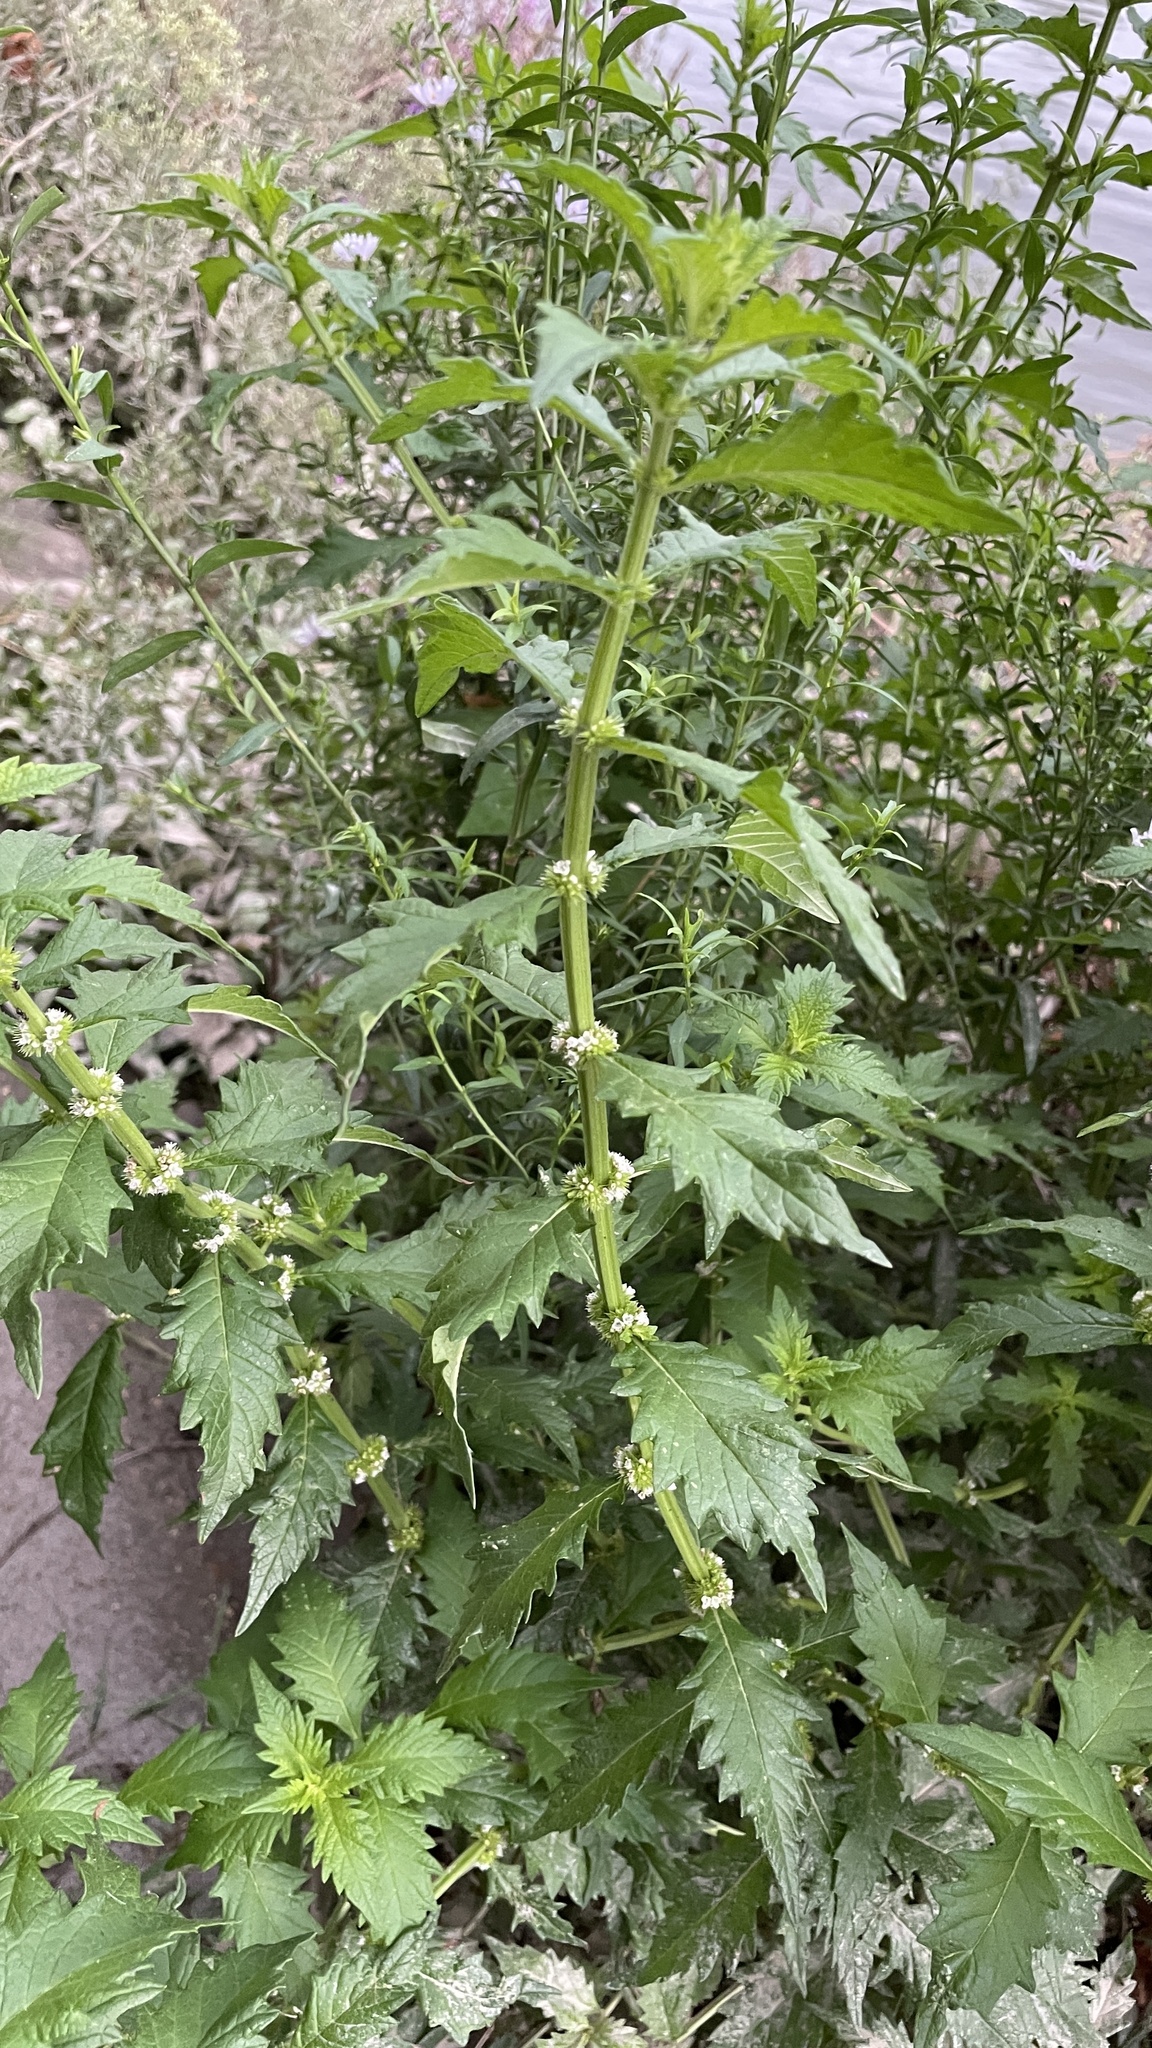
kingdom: Plantae
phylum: Tracheophyta
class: Magnoliopsida
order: Lamiales
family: Lamiaceae
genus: Lycopus
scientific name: Lycopus europaeus
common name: European bugleweed
